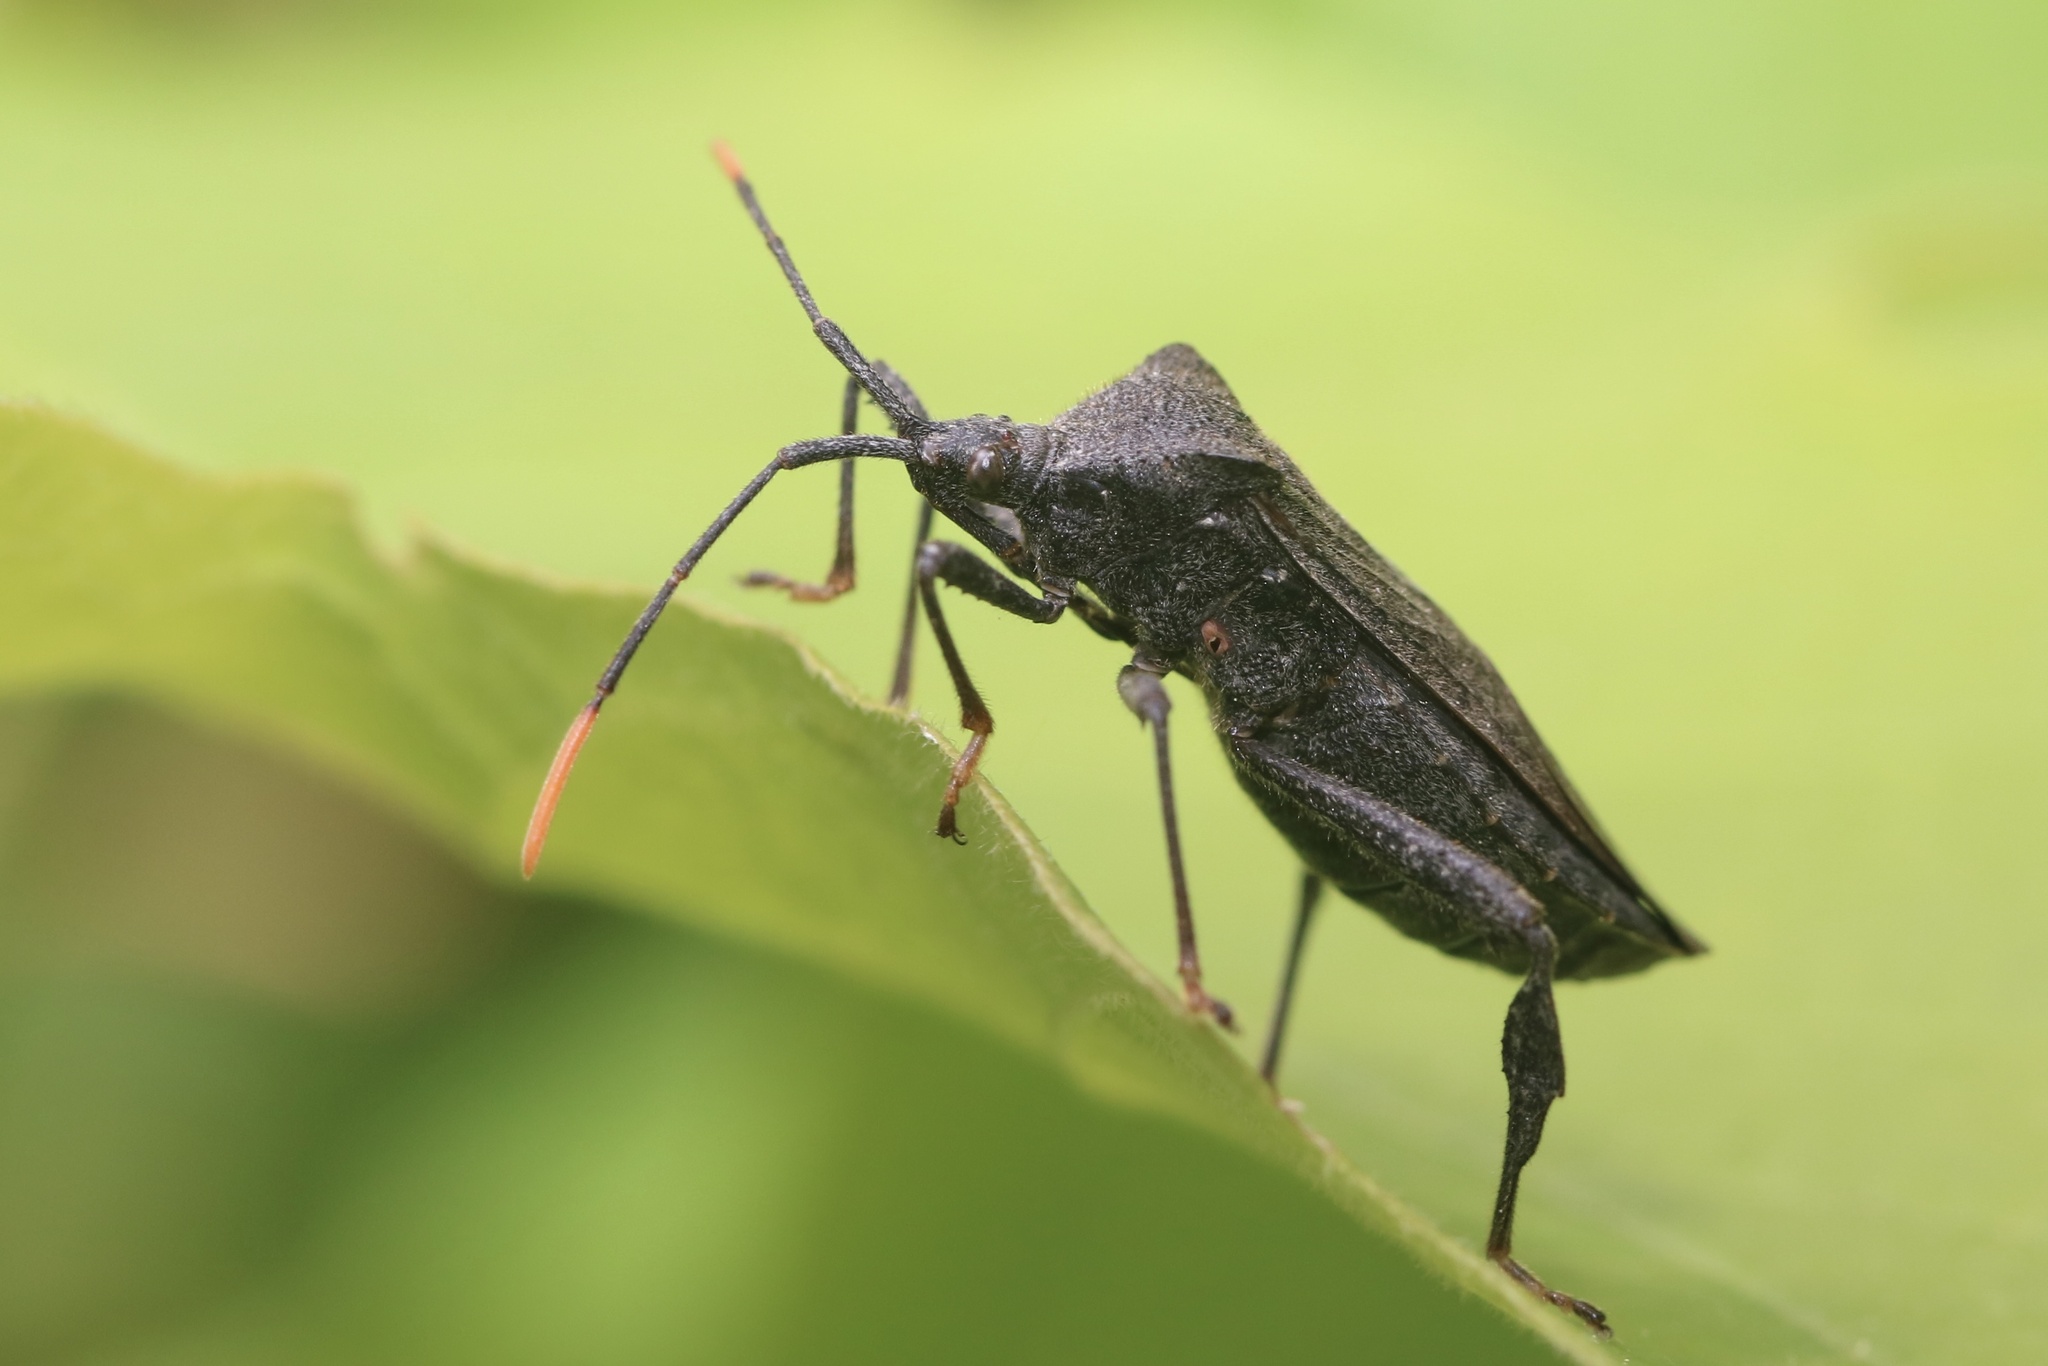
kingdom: Animalia
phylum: Arthropoda
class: Insecta
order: Hemiptera
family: Coreidae
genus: Acanthocephala
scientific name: Acanthocephala terminalis
